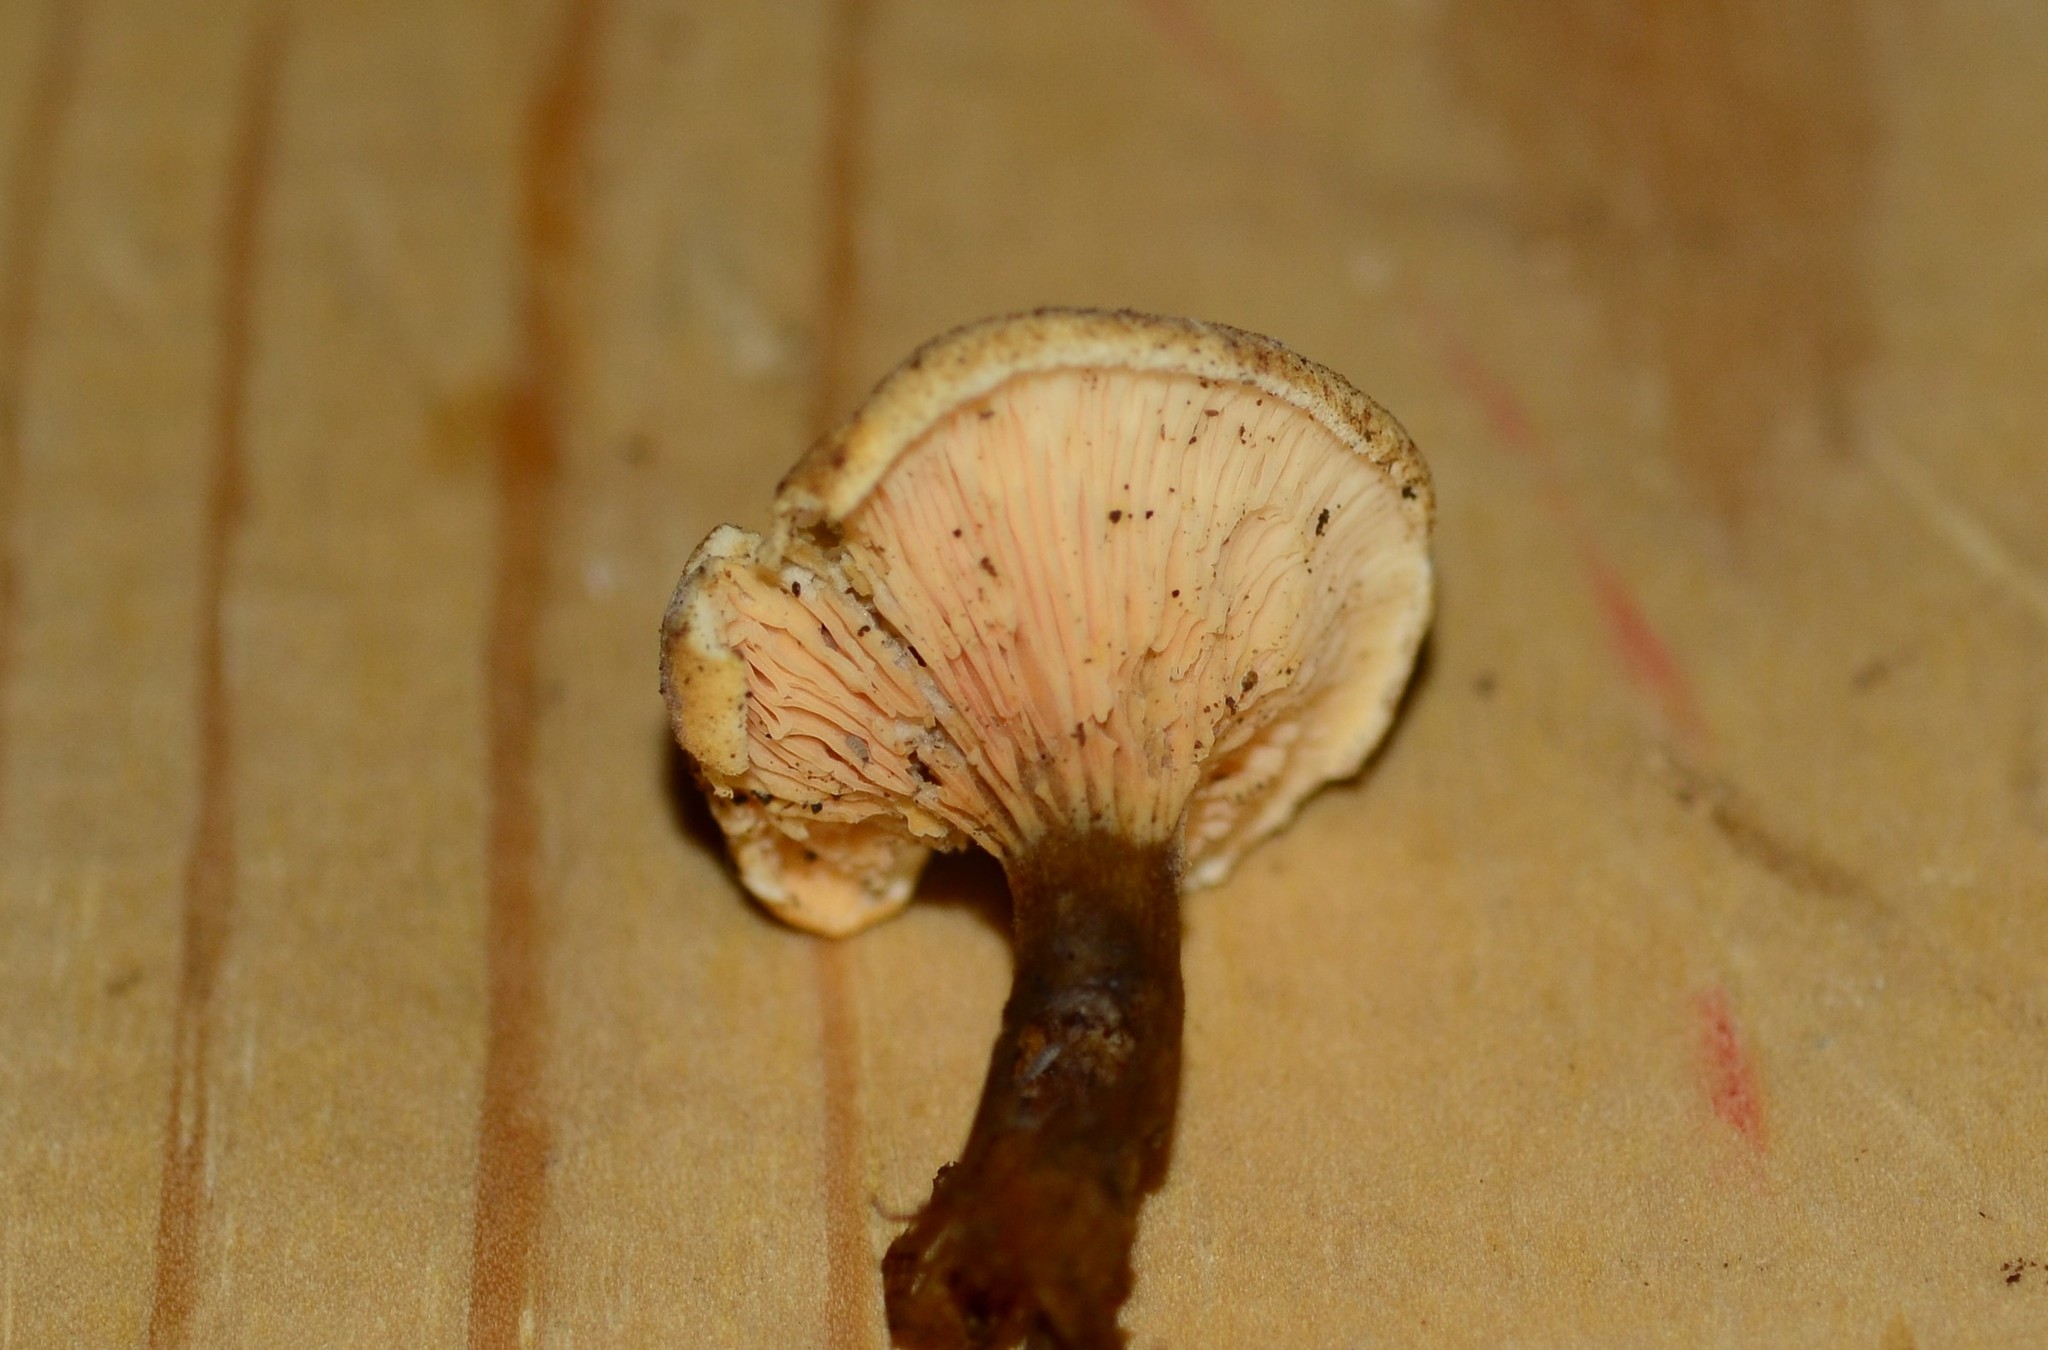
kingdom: Fungi
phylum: Basidiomycota
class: Agaricomycetes
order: Boletales
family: Hygrophoropsidaceae
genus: Hygrophoropsis
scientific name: Hygrophoropsis aurantiaca
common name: False chanterelle
